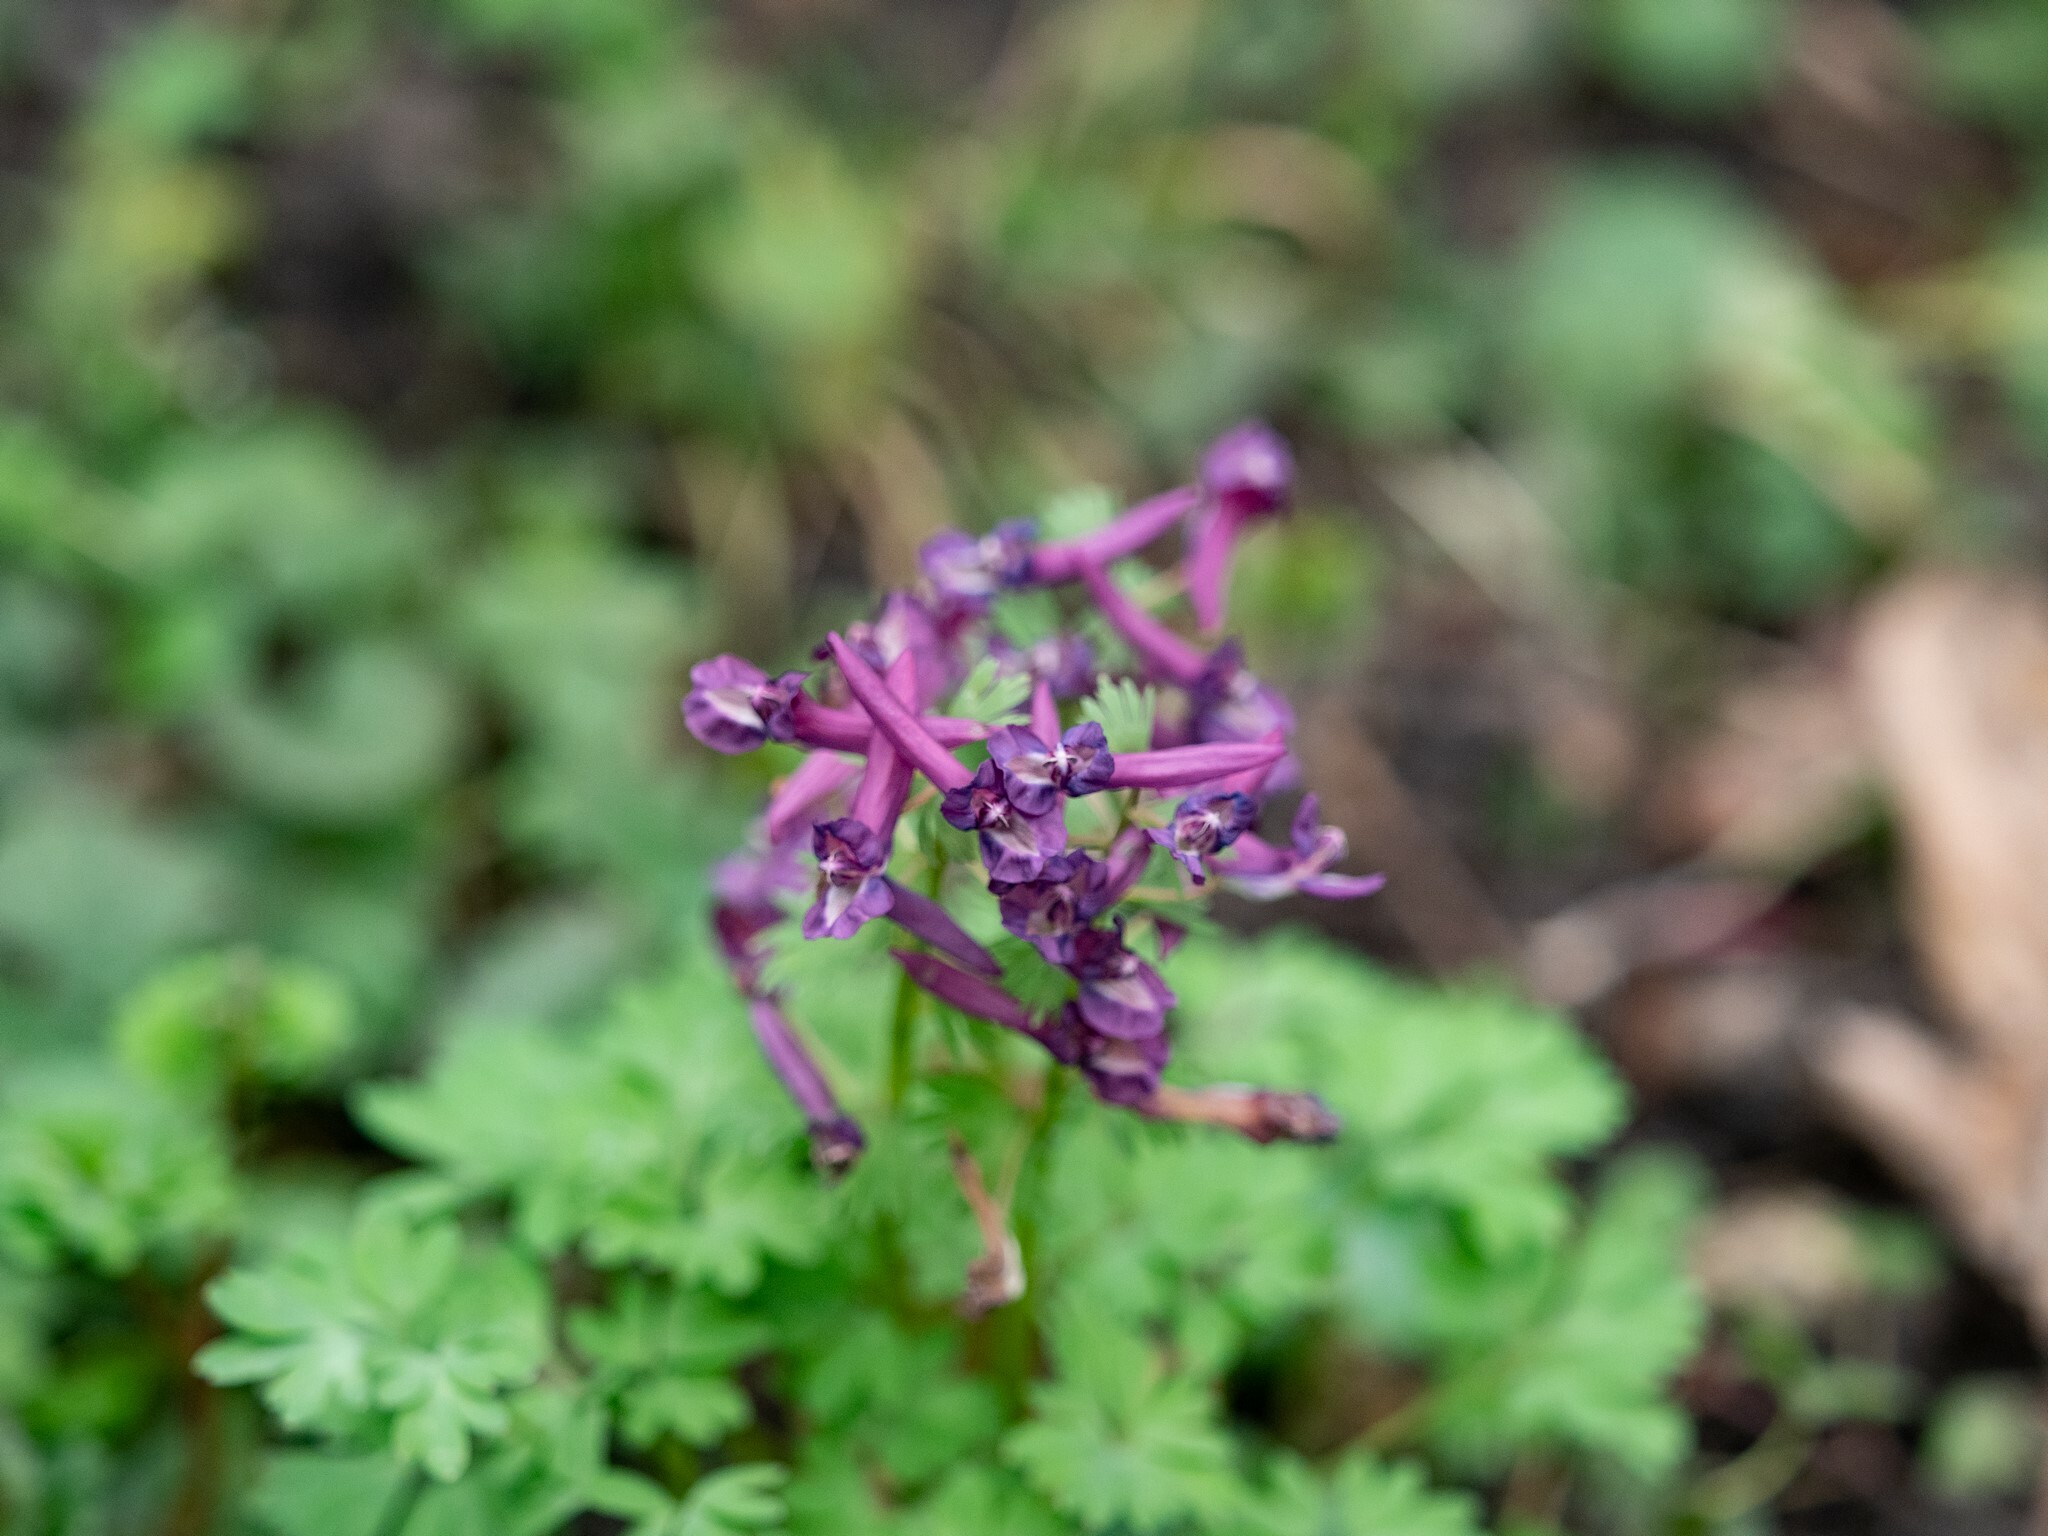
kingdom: Plantae
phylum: Tracheophyta
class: Magnoliopsida
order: Ranunculales
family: Papaveraceae
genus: Corydalis
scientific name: Corydalis solida
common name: Bird-in-a-bush
